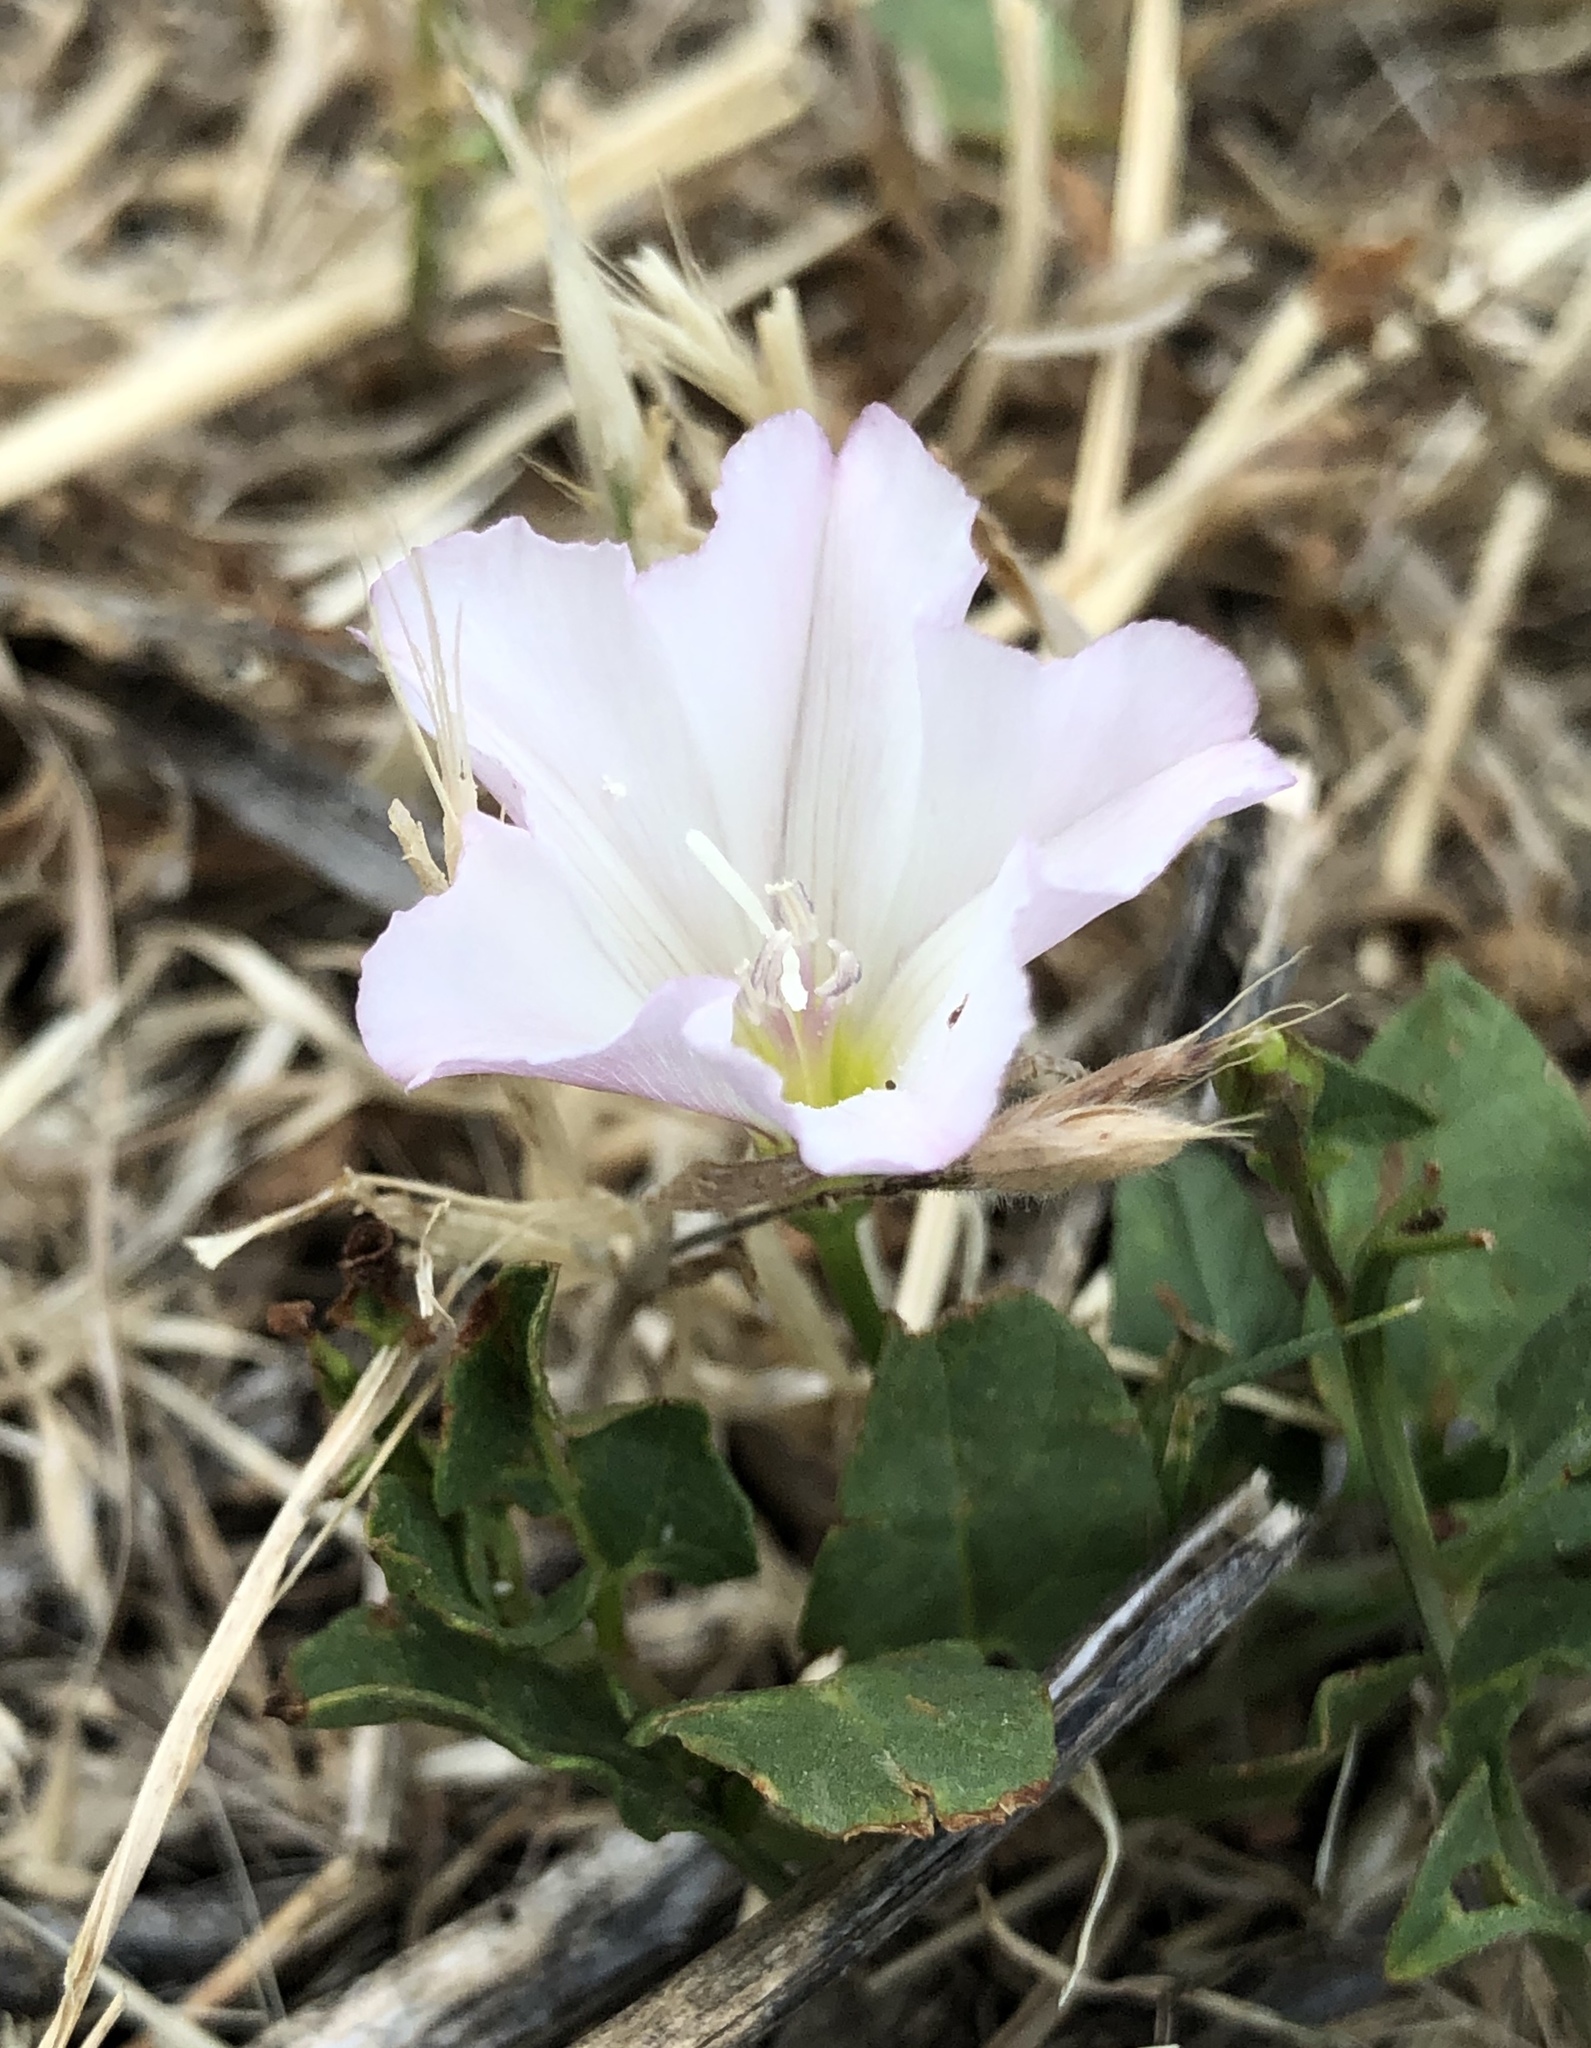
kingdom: Plantae
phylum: Tracheophyta
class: Magnoliopsida
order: Solanales
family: Convolvulaceae
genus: Convolvulus
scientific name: Convolvulus arvensis
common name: Field bindweed
